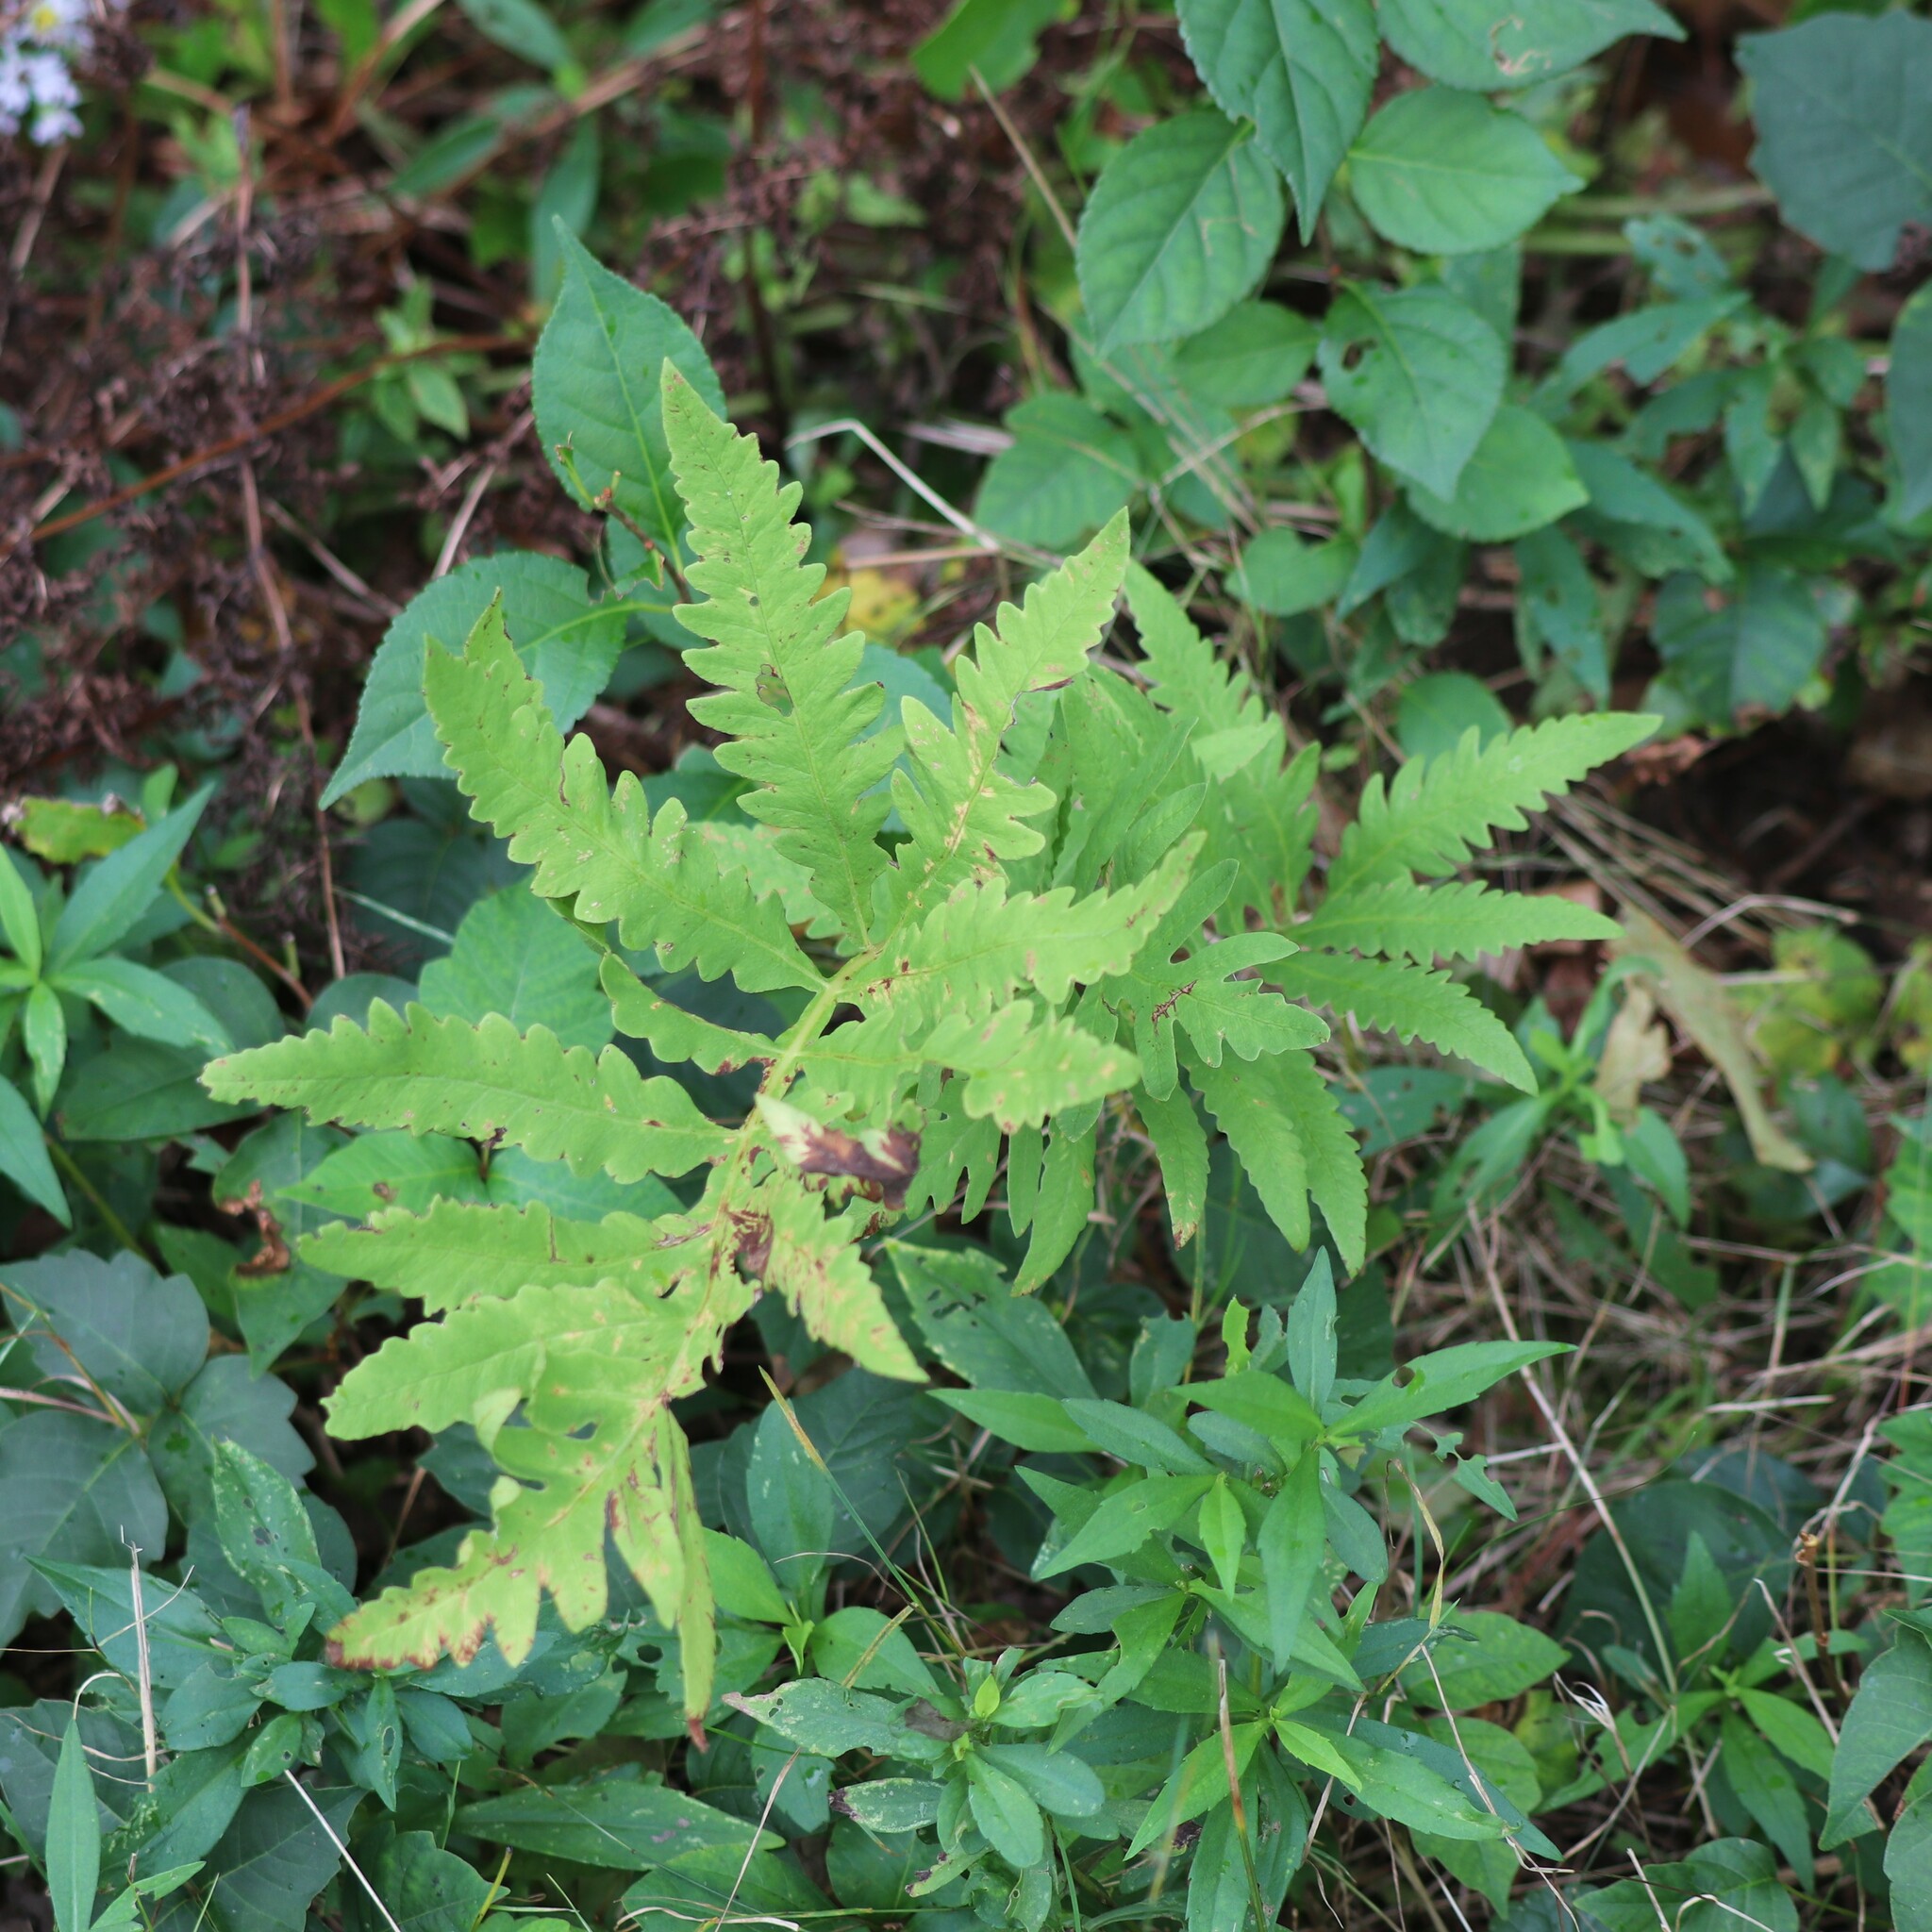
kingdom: Plantae
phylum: Tracheophyta
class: Polypodiopsida
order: Polypodiales
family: Onocleaceae
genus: Onoclea
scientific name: Onoclea sensibilis
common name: Sensitive fern
